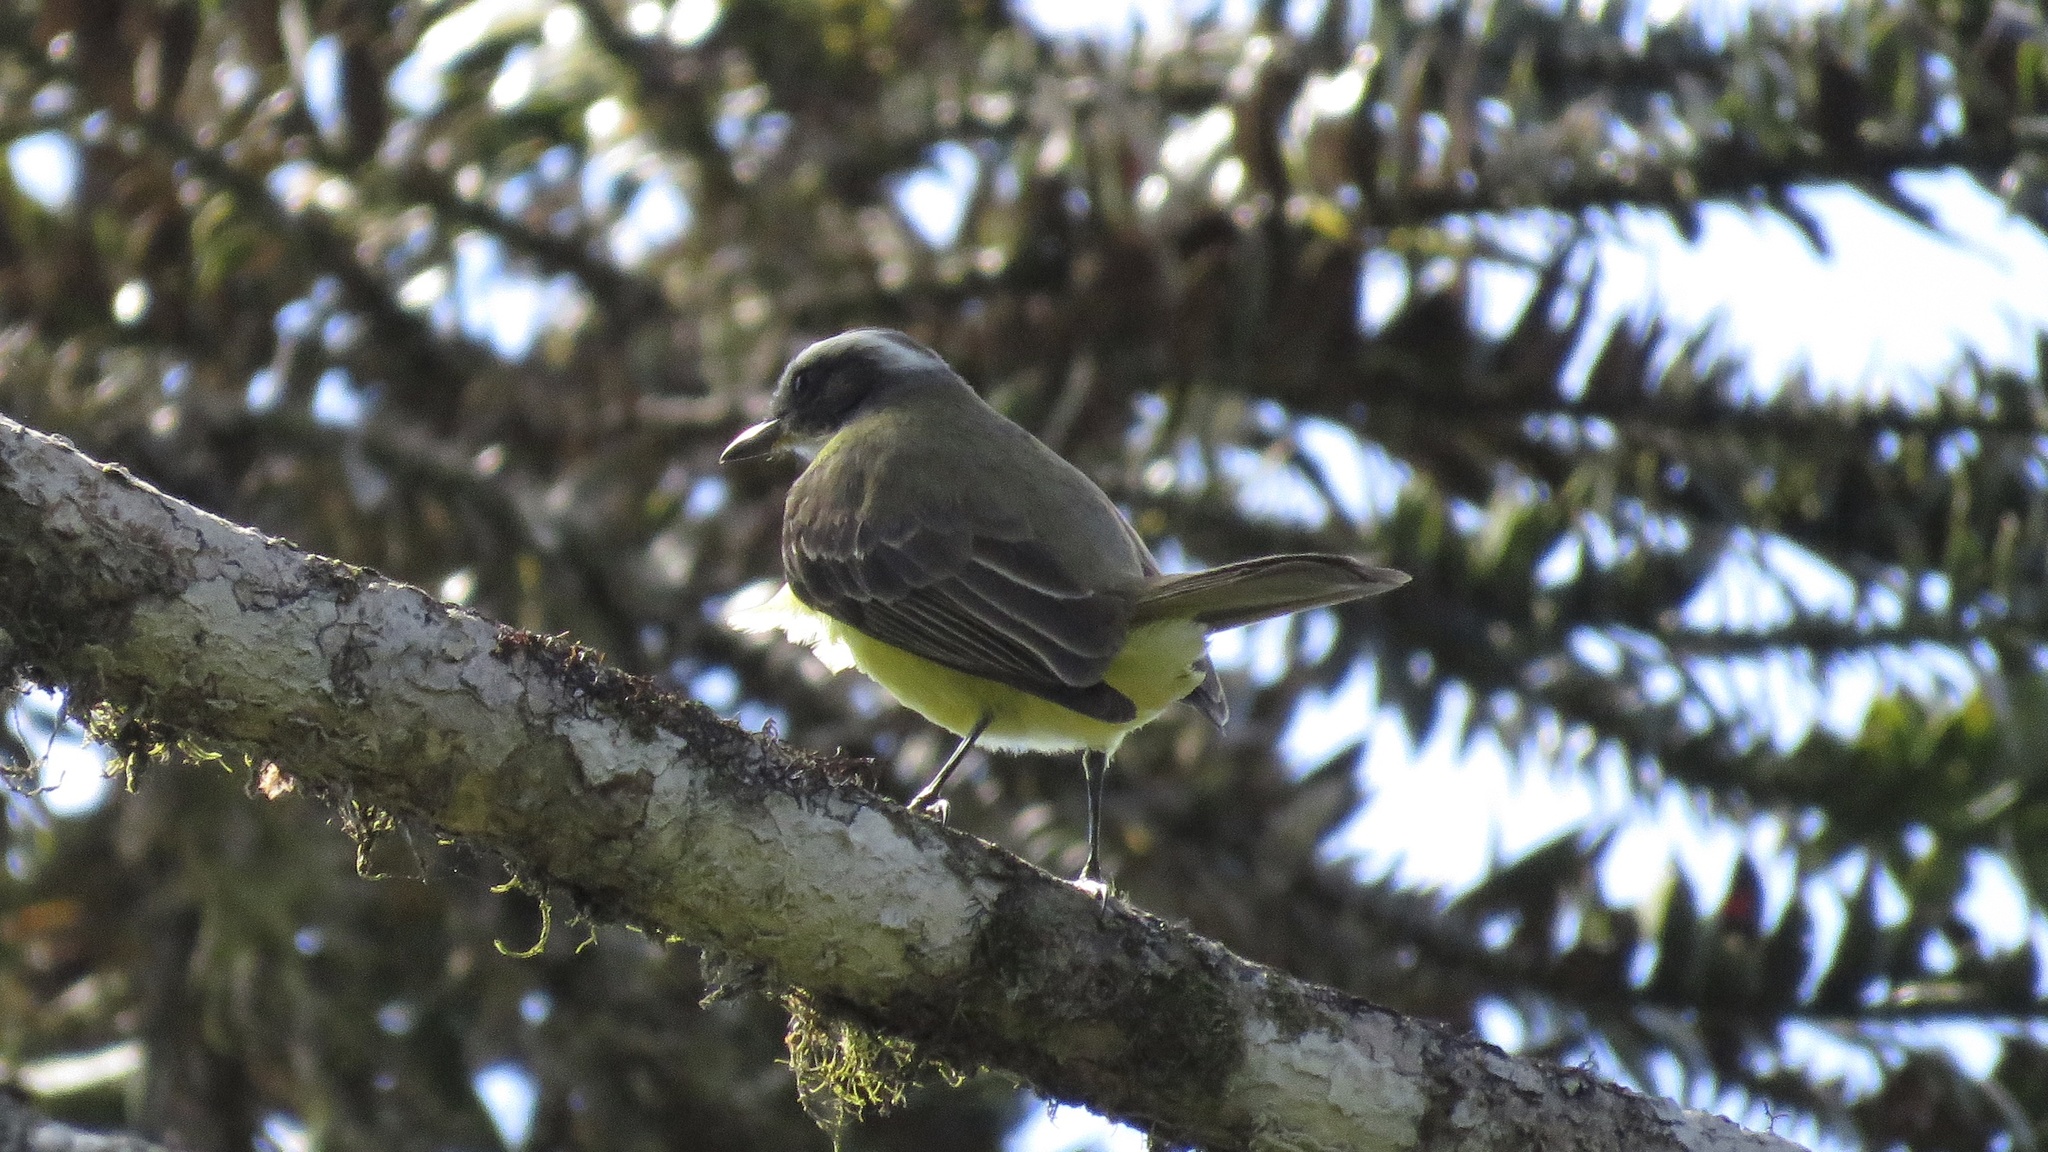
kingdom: Animalia
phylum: Chordata
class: Aves
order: Passeriformes
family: Tyrannidae
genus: Myiozetetes
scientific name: Myiozetetes granadensis
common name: Gray-capped flycatcher
